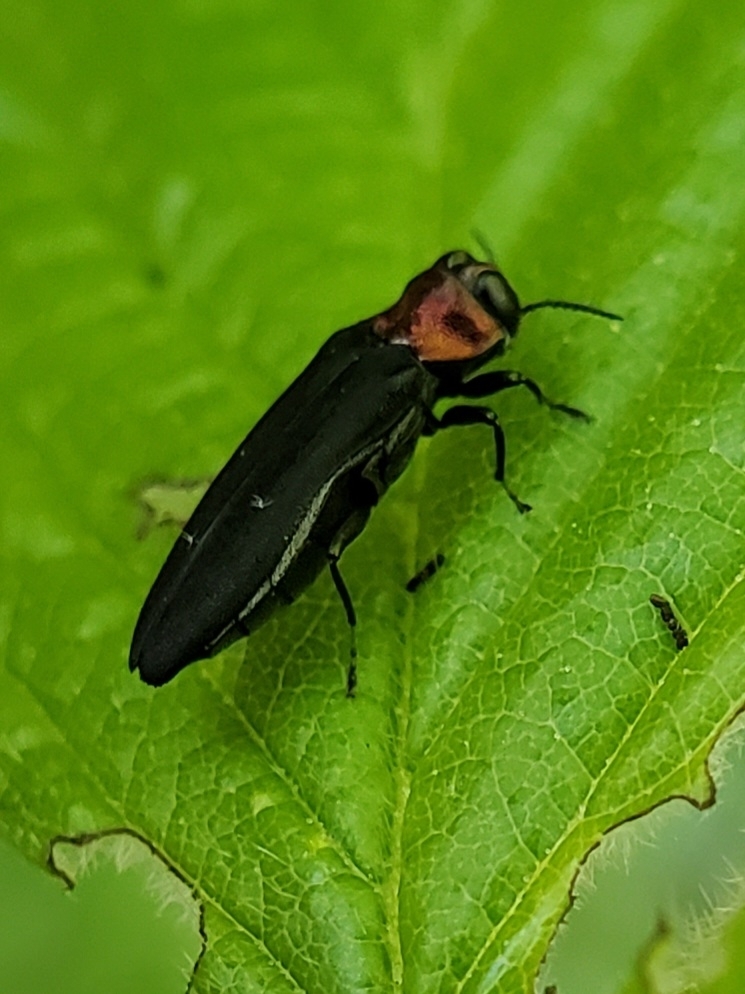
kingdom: Animalia
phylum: Arthropoda
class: Insecta
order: Coleoptera
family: Buprestidae
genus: Agrilus
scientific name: Agrilus ruficollis
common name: Red-necked cane borer beetle
